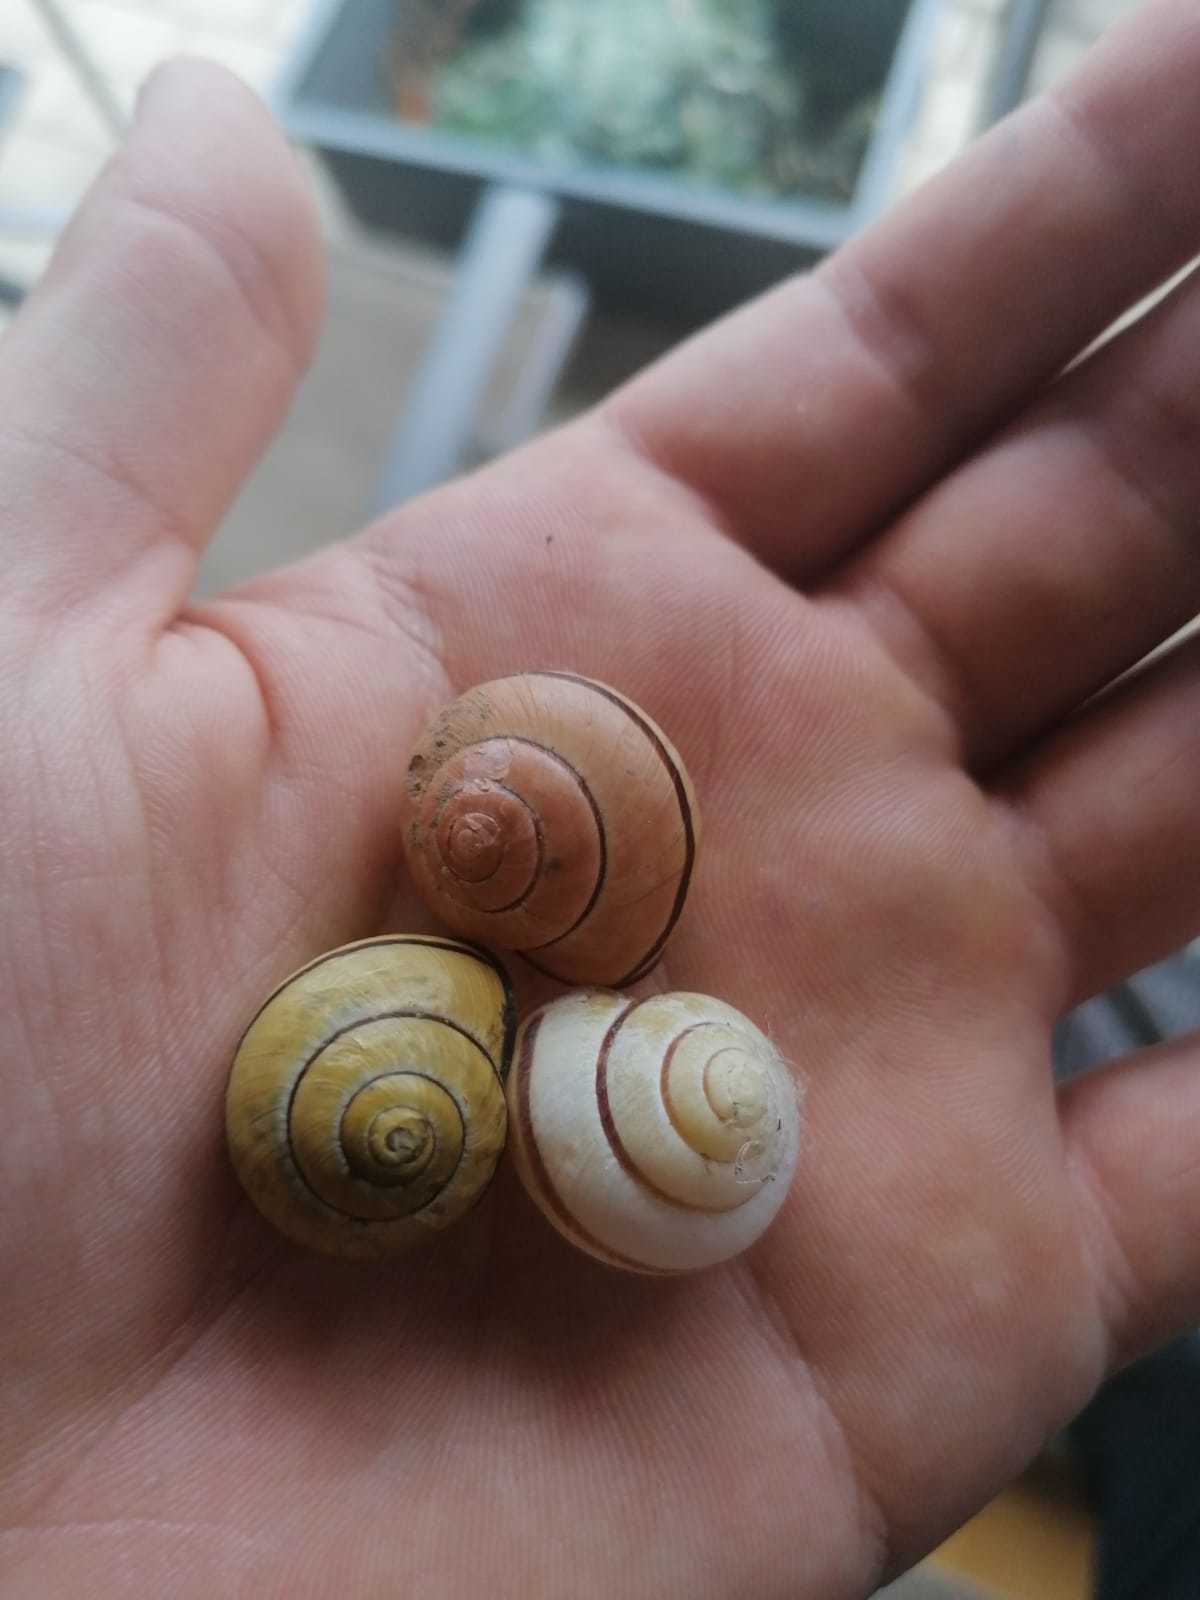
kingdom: Animalia
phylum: Mollusca
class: Gastropoda
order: Stylommatophora
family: Helicidae
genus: Cepaea
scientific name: Cepaea nemoralis
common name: Grovesnail
